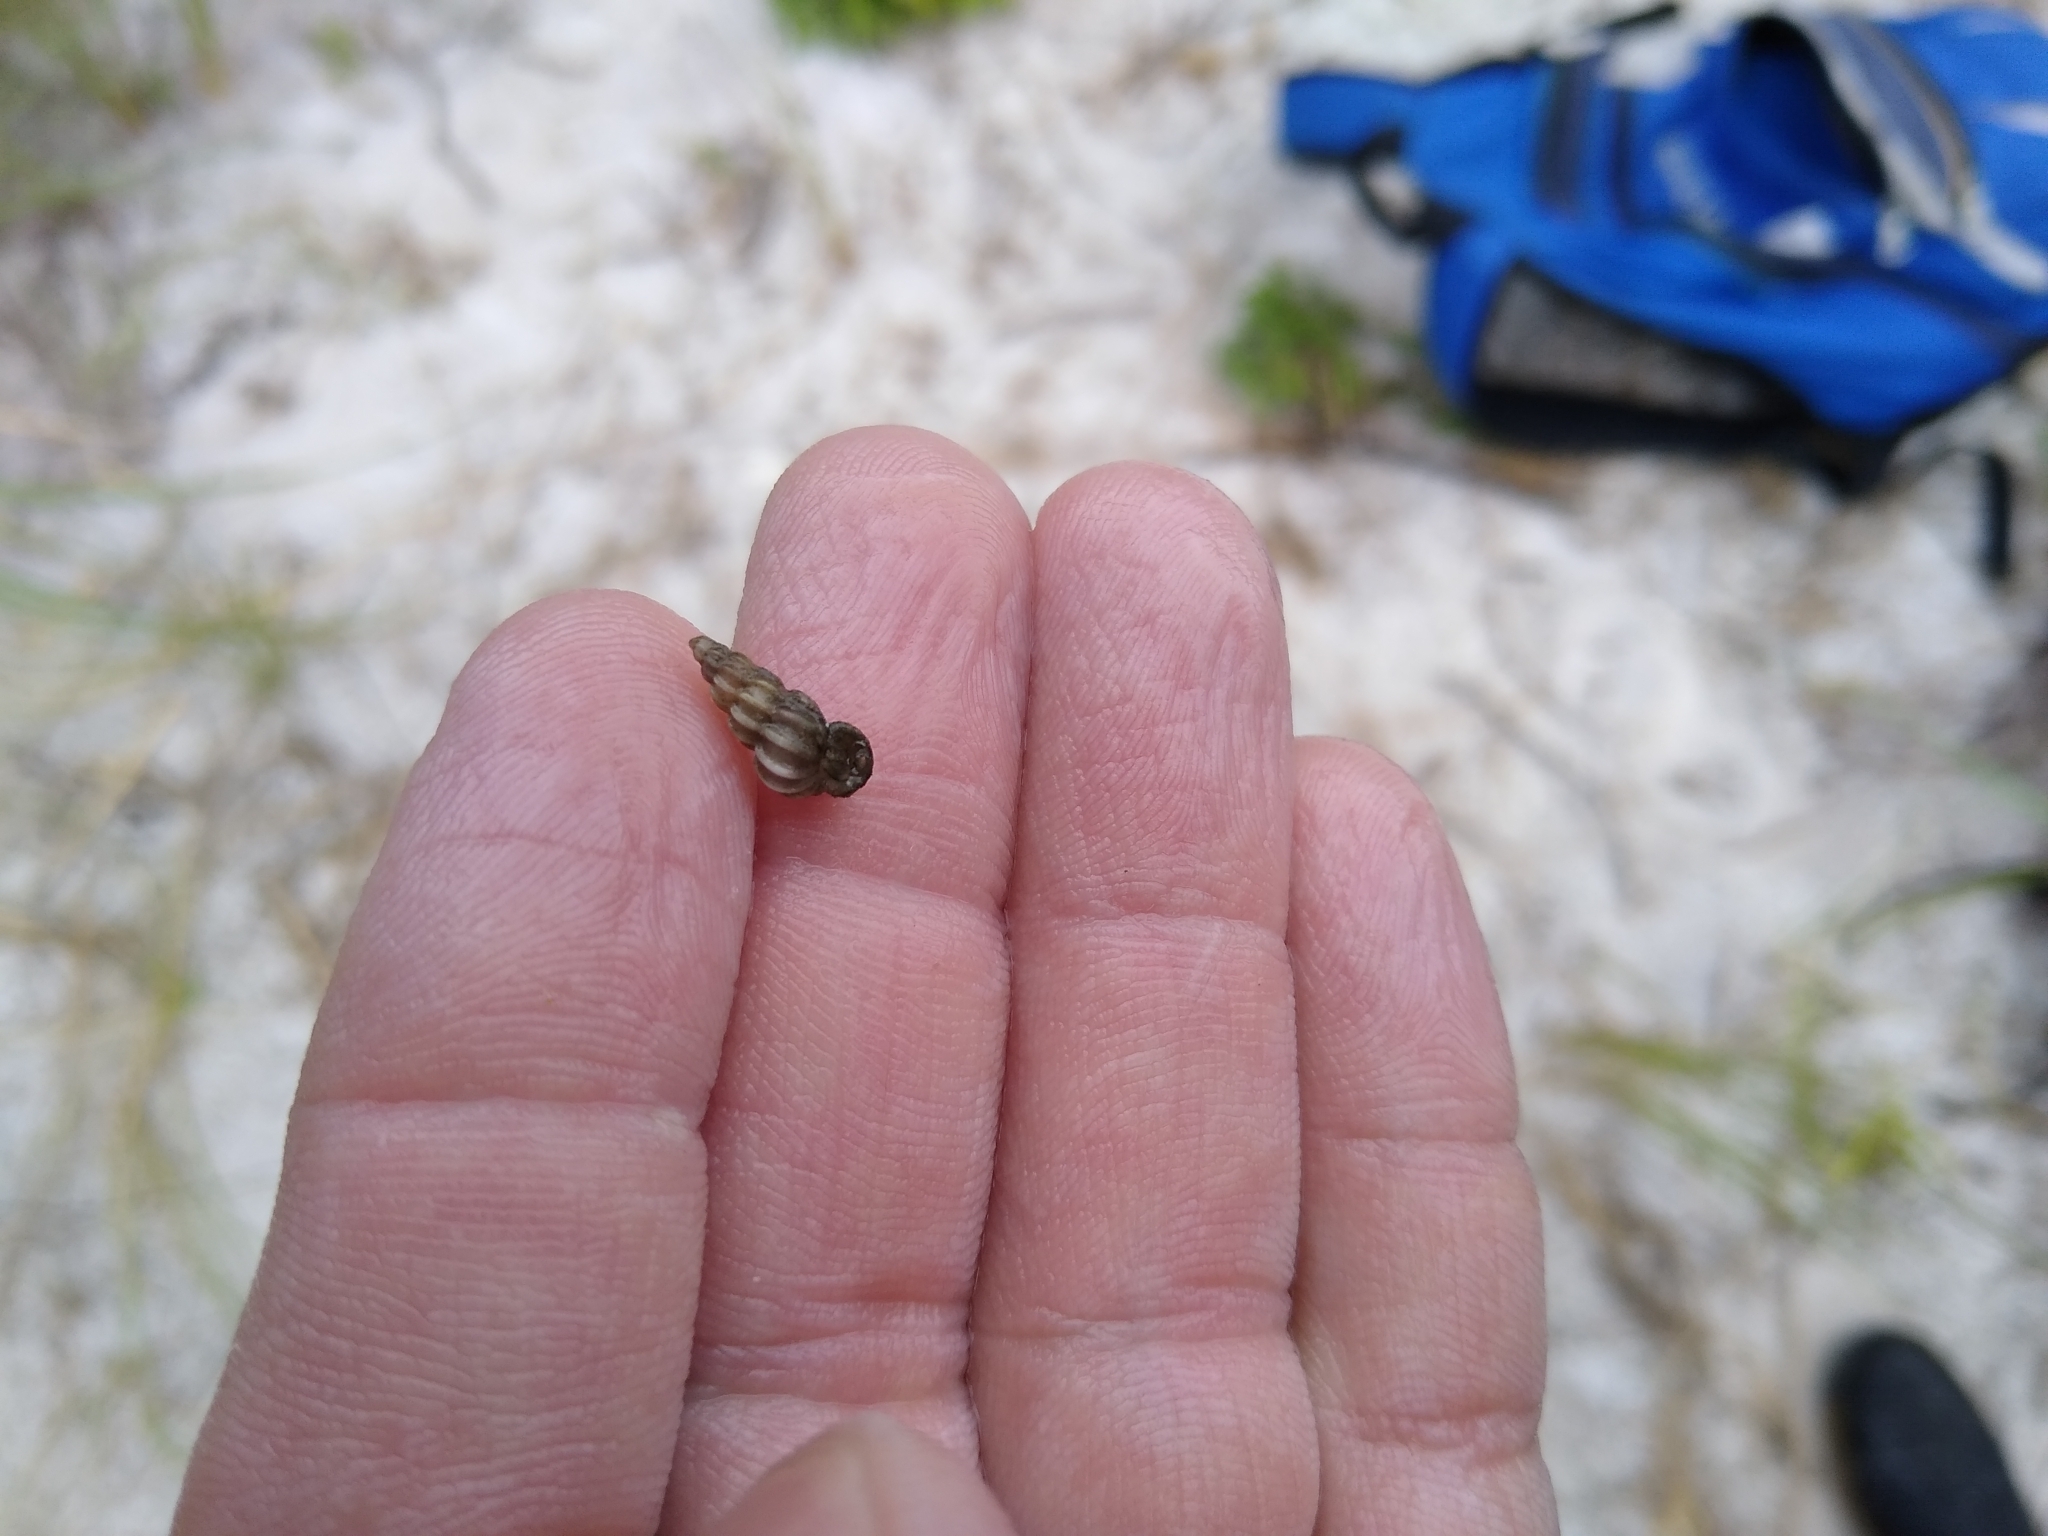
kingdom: Animalia
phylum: Mollusca
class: Gastropoda
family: Epitoniidae
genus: Epitonium
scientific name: Epitonium humphreysii
